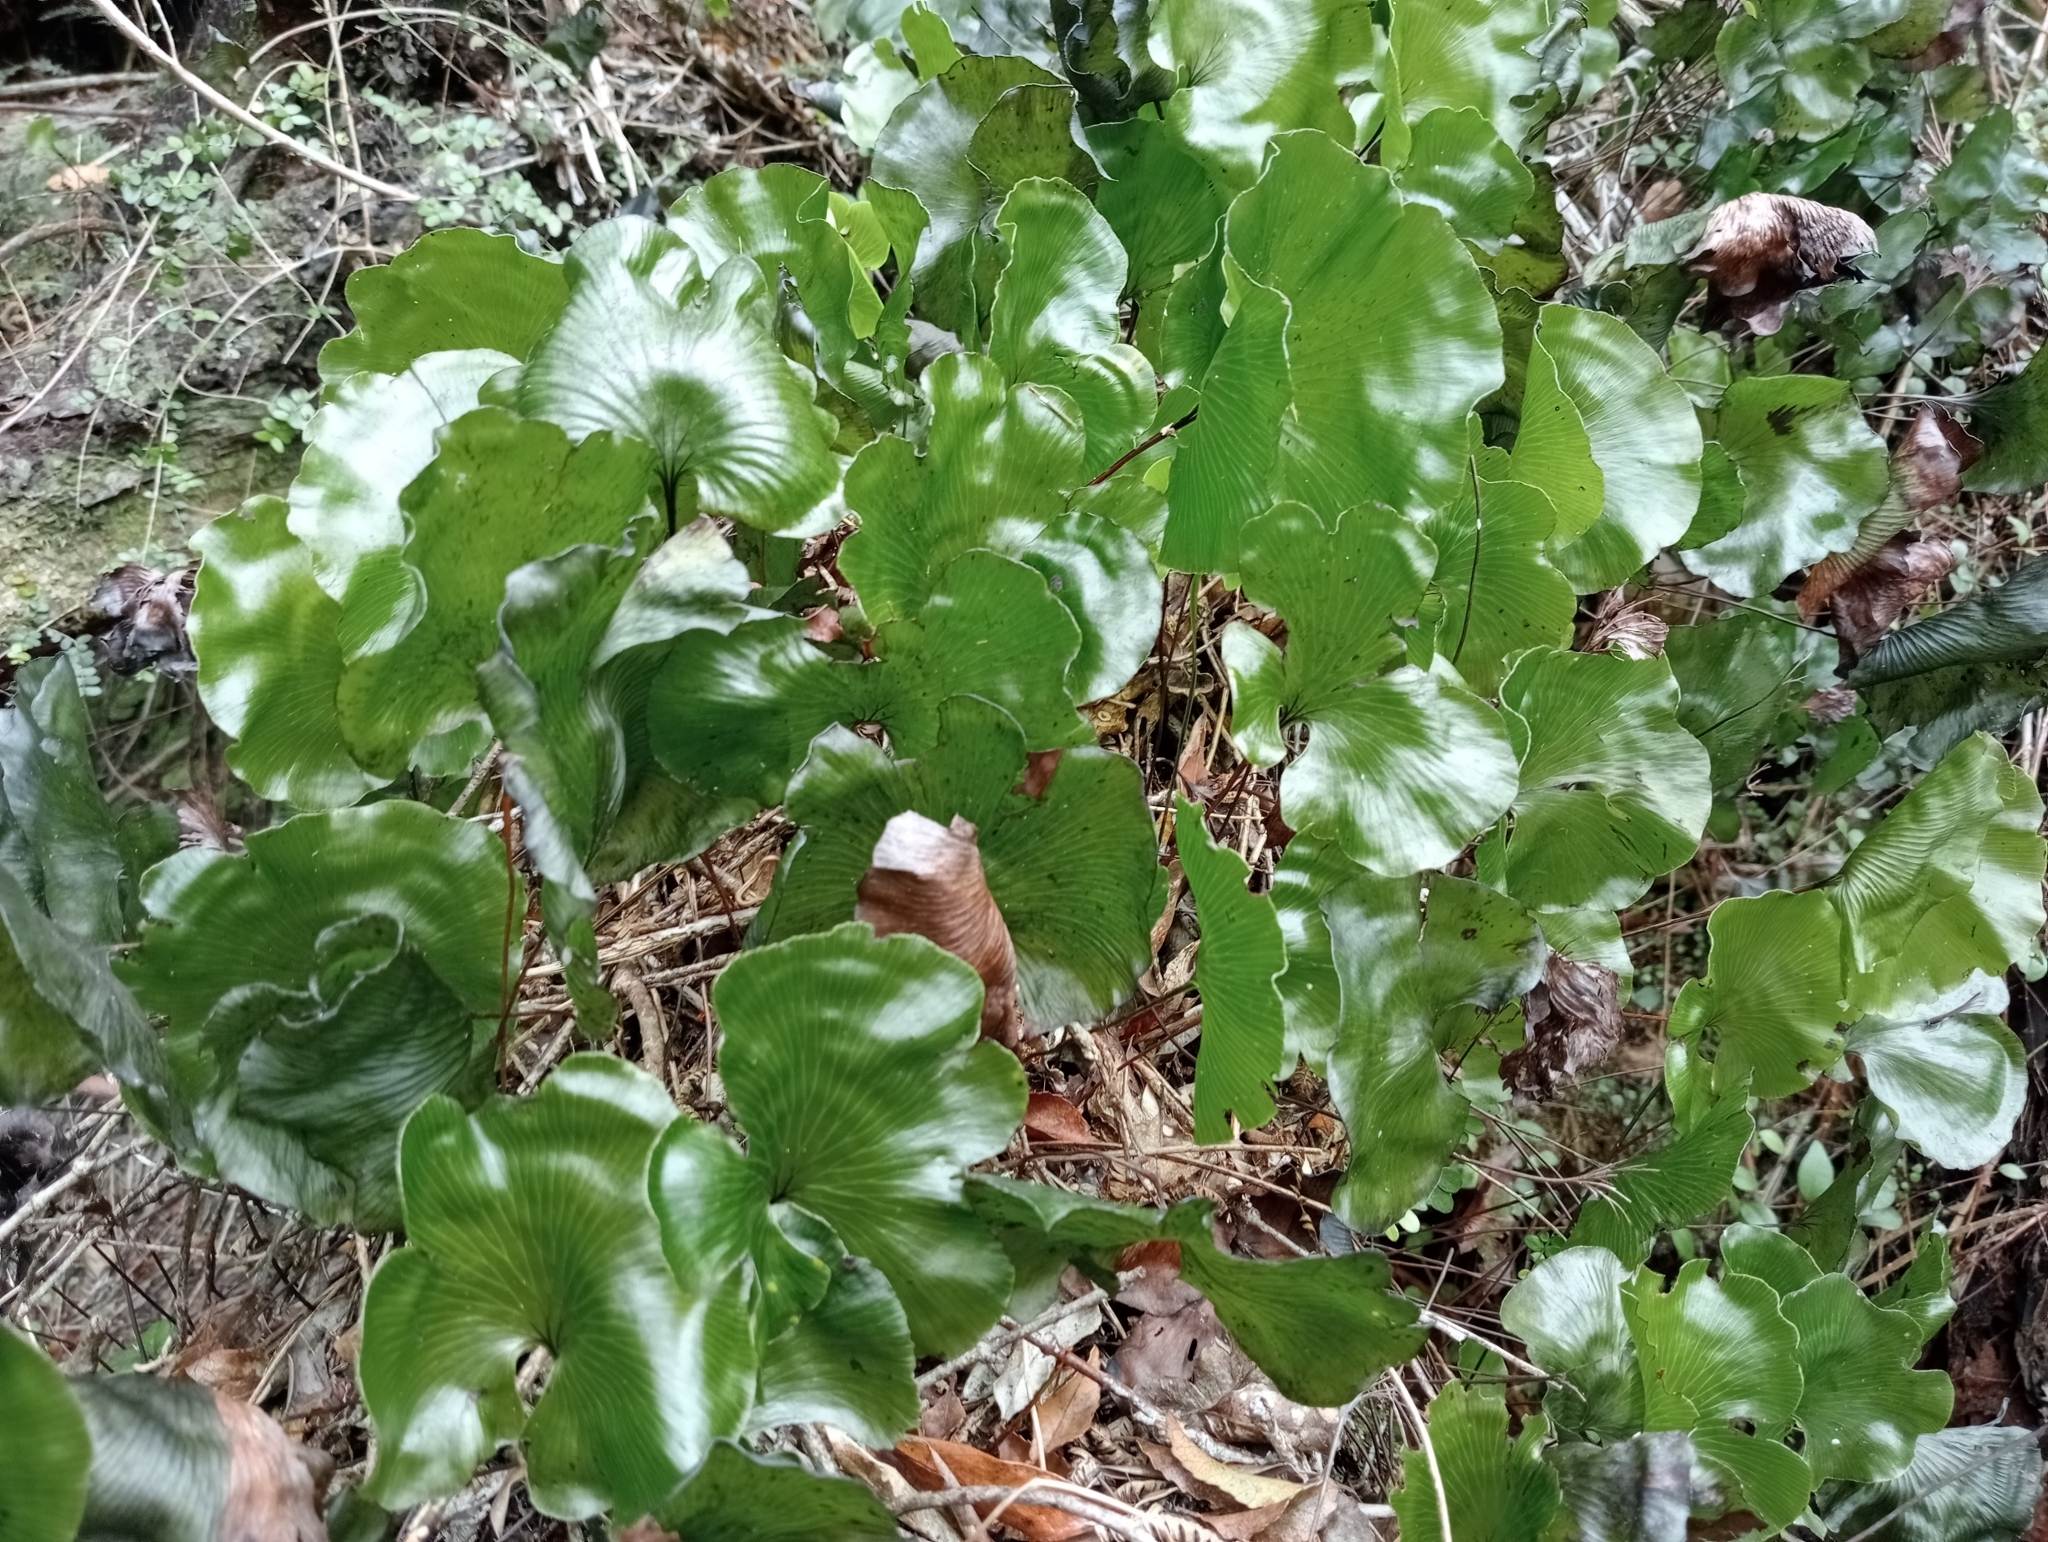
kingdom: Plantae
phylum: Tracheophyta
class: Polypodiopsida
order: Hymenophyllales
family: Hymenophyllaceae
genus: Hymenophyllum
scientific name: Hymenophyllum nephrophyllum
